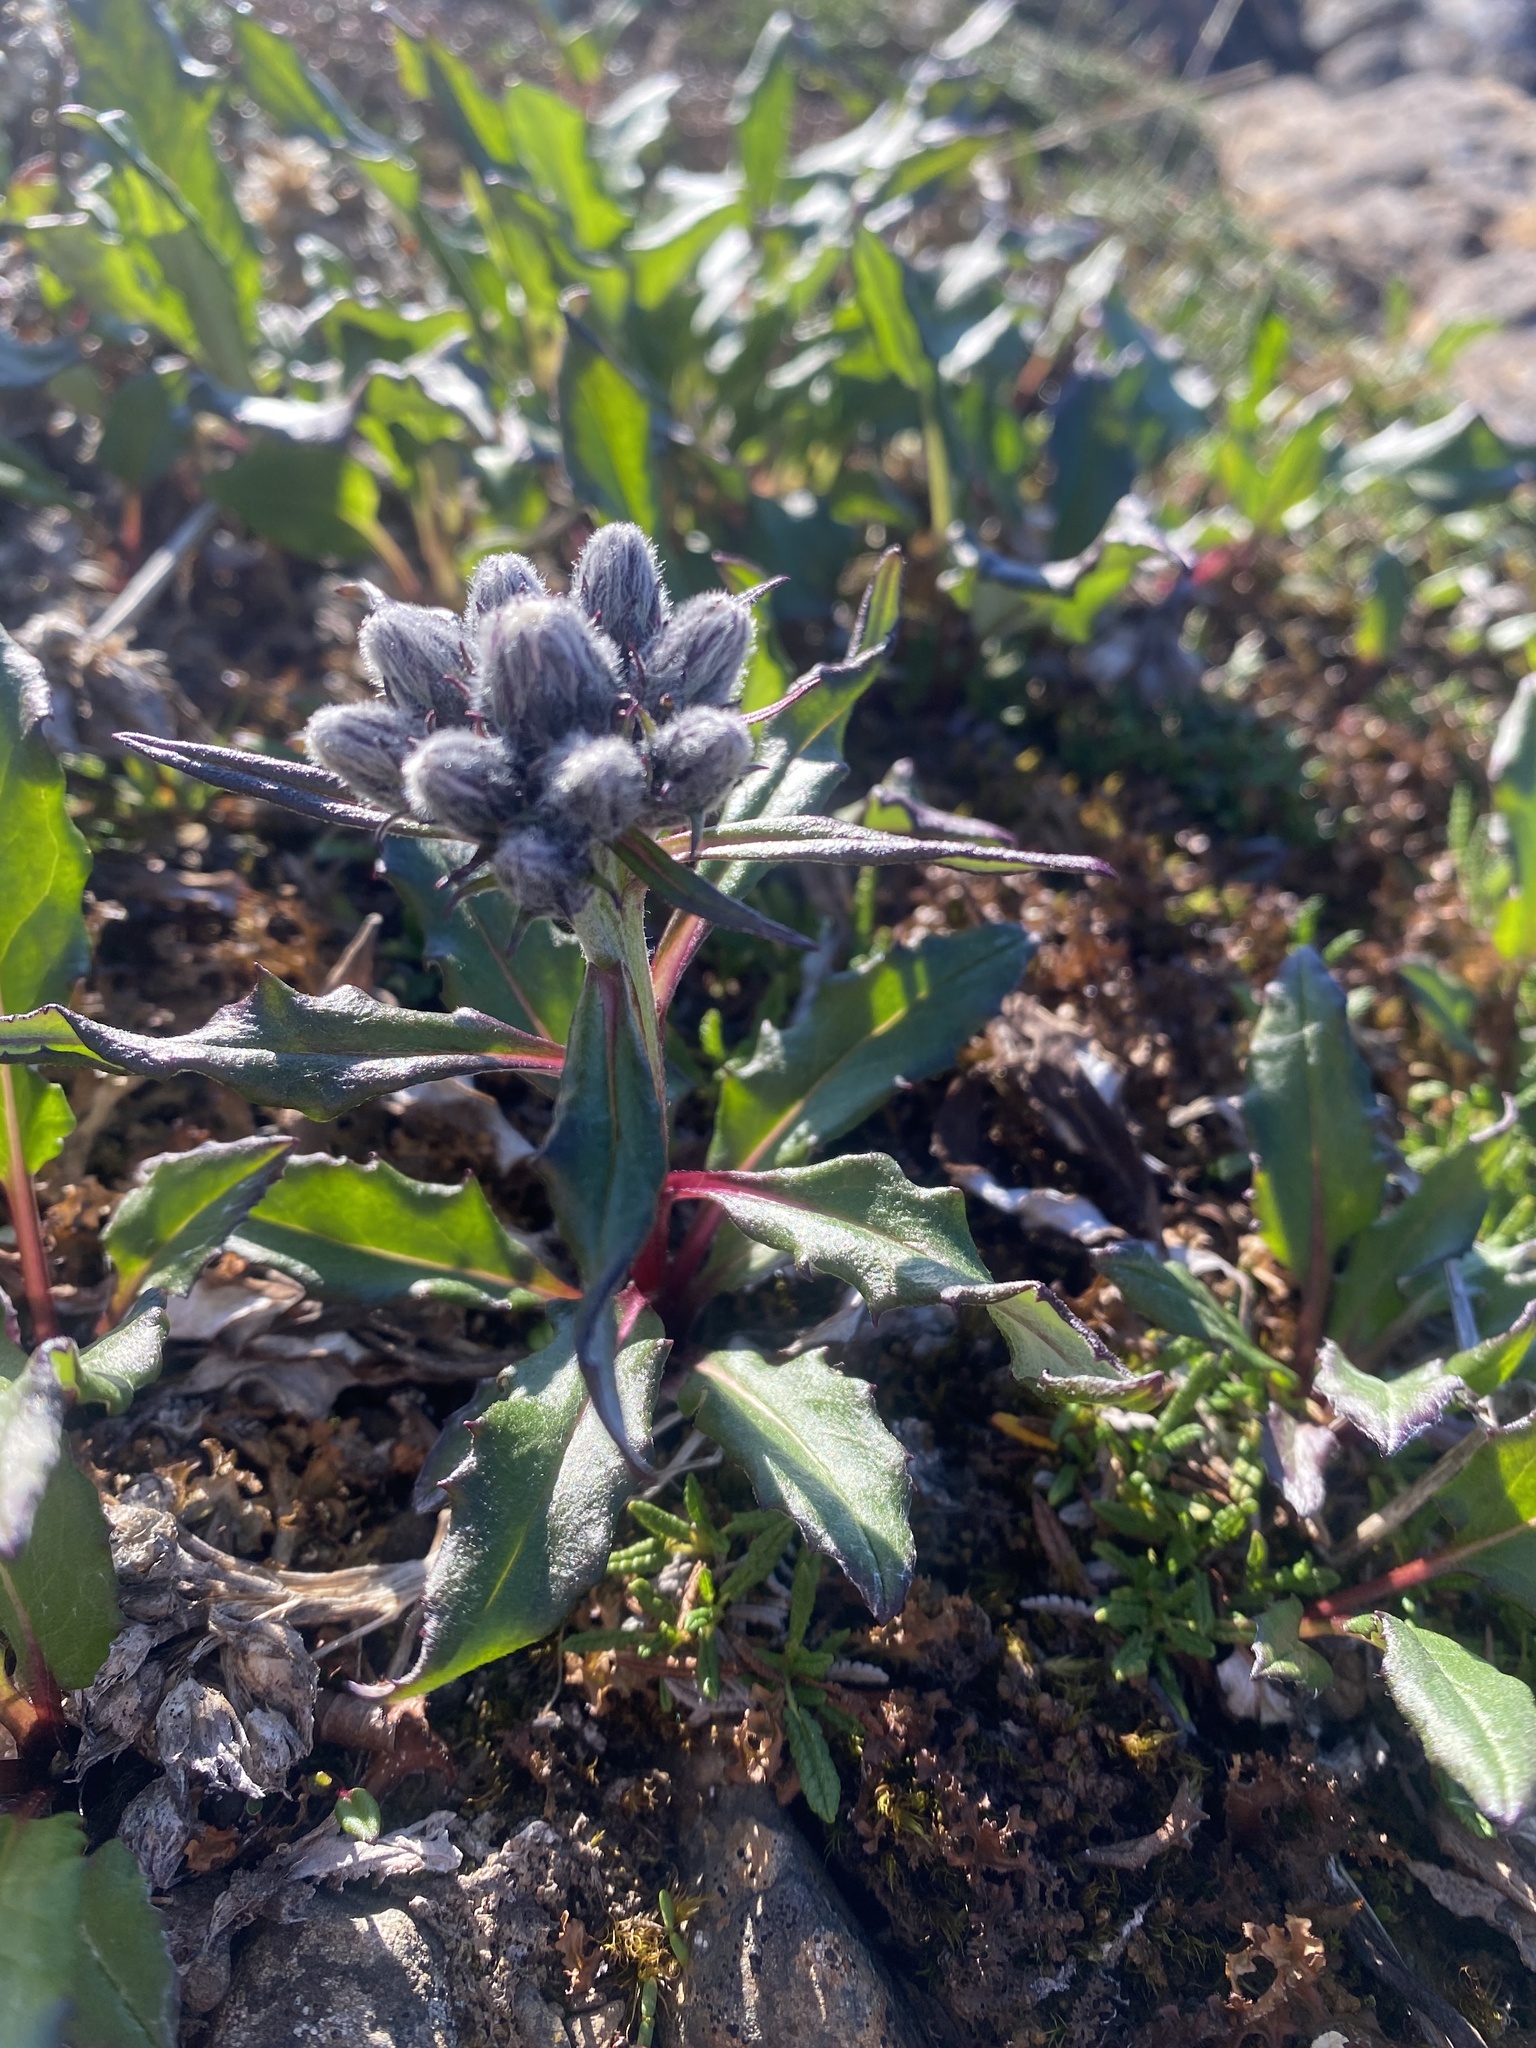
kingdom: Plantae
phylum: Tracheophyta
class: Magnoliopsida
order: Asterales
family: Asteraceae
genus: Saussurea
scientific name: Saussurea denticulata
